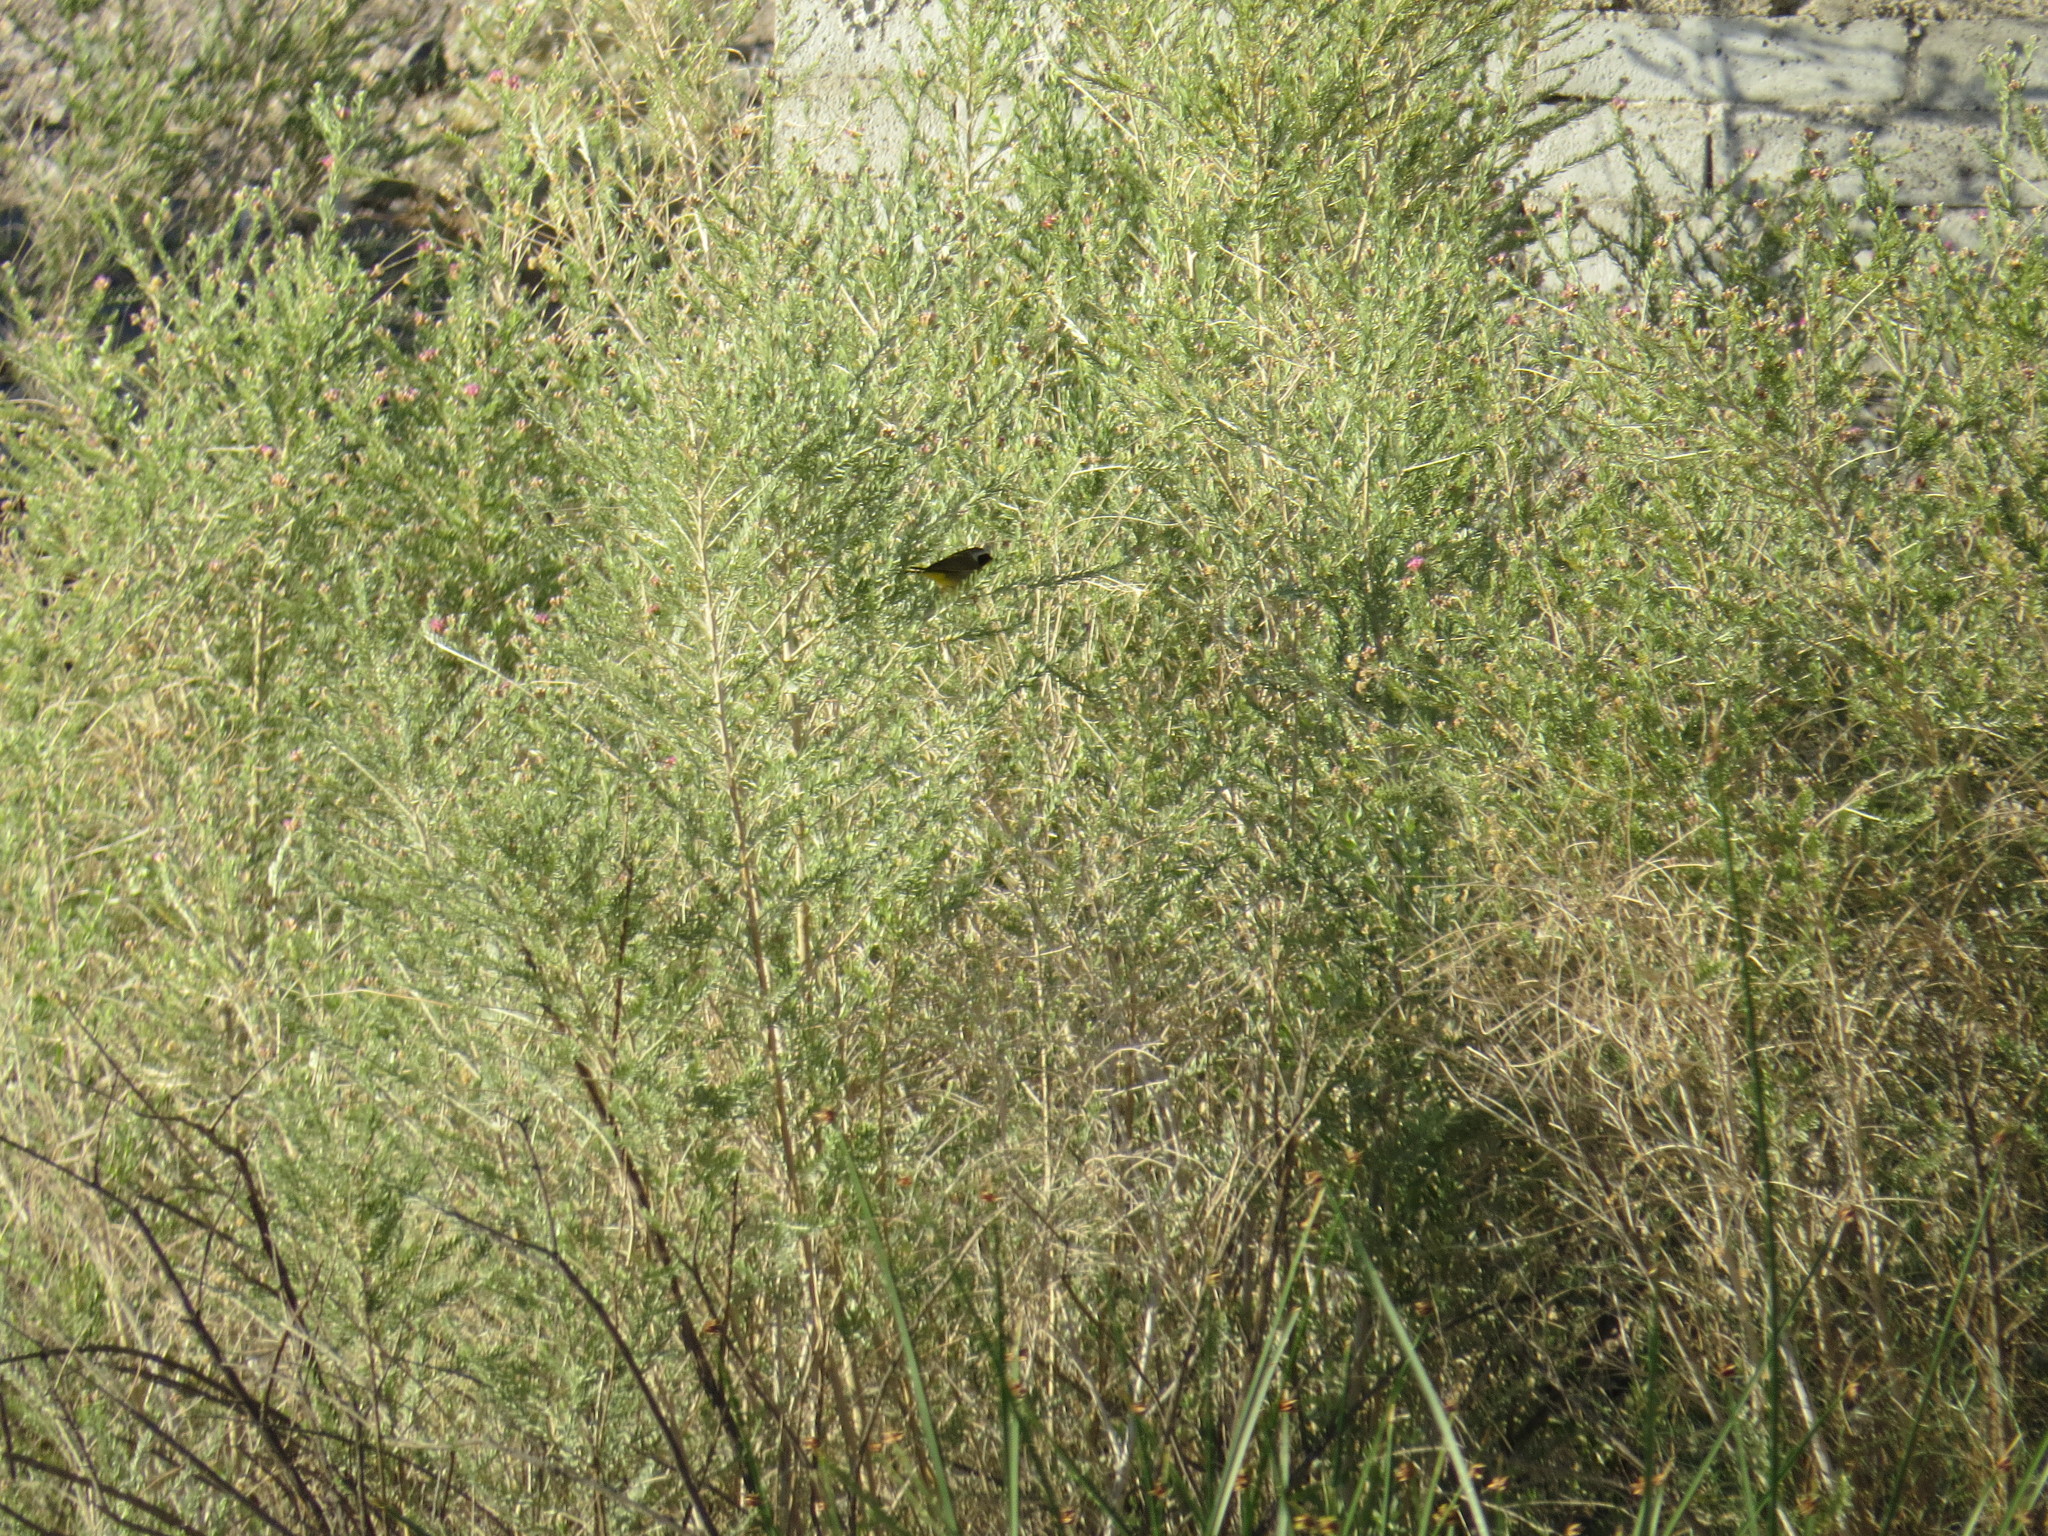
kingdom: Animalia
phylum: Chordata
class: Aves
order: Passeriformes
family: Parulidae
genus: Geothlypis
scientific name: Geothlypis trichas
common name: Common yellowthroat
